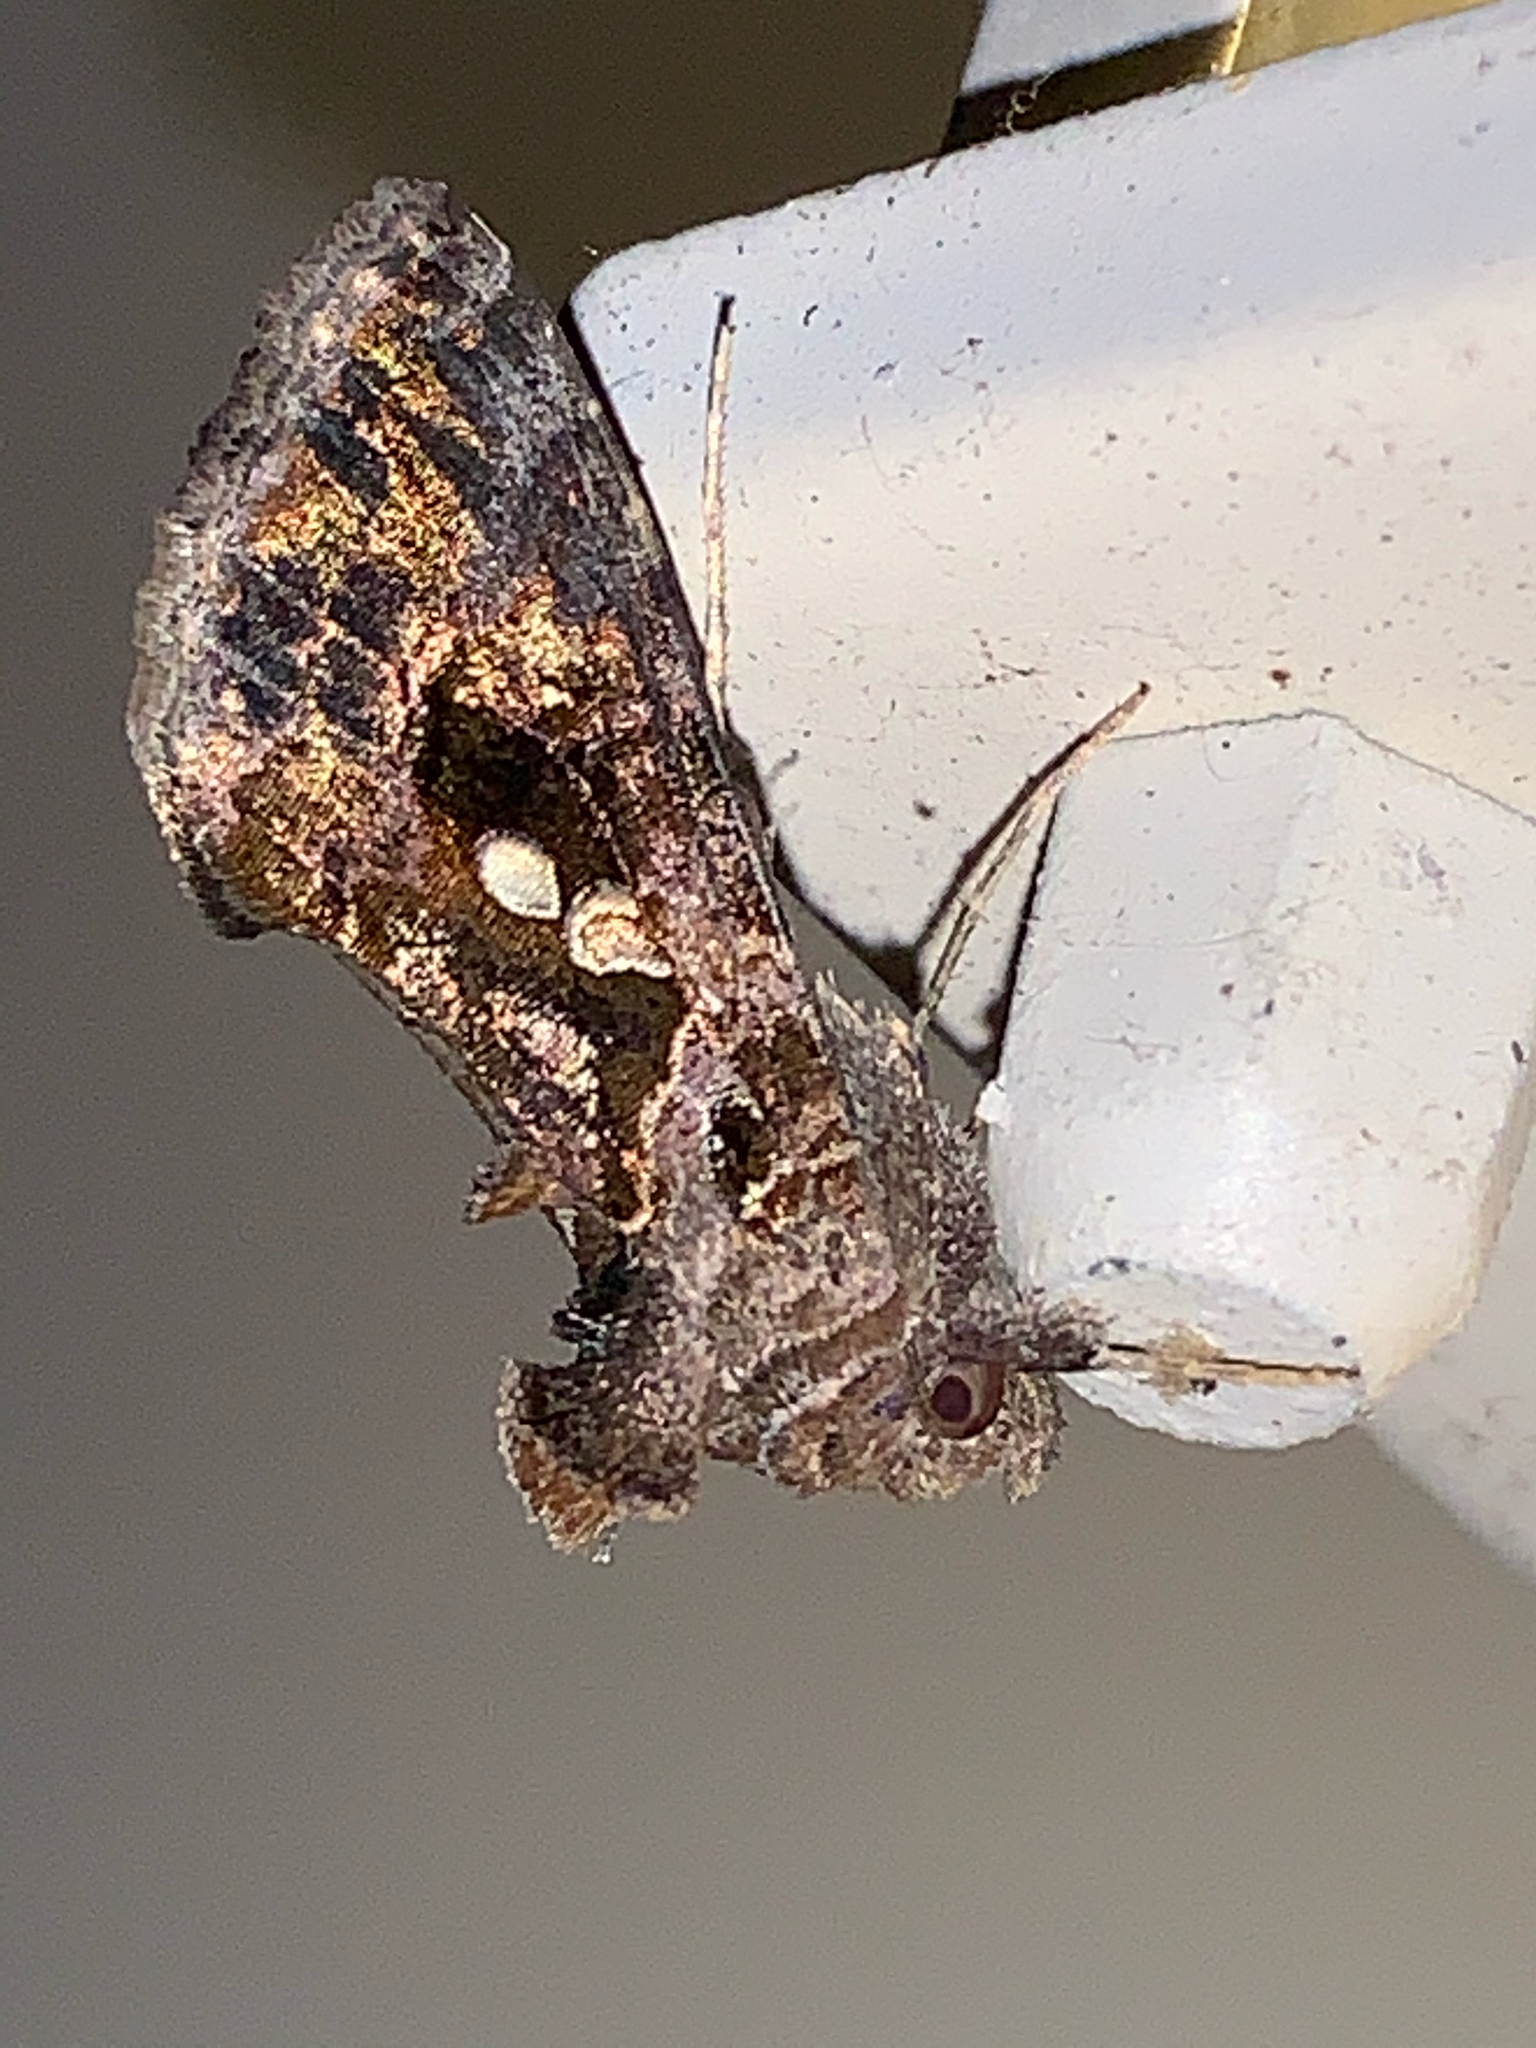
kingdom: Animalia
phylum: Arthropoda
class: Insecta
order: Lepidoptera
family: Noctuidae
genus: Chrysodeixis
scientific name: Chrysodeixis includens
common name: Cutworm moth
